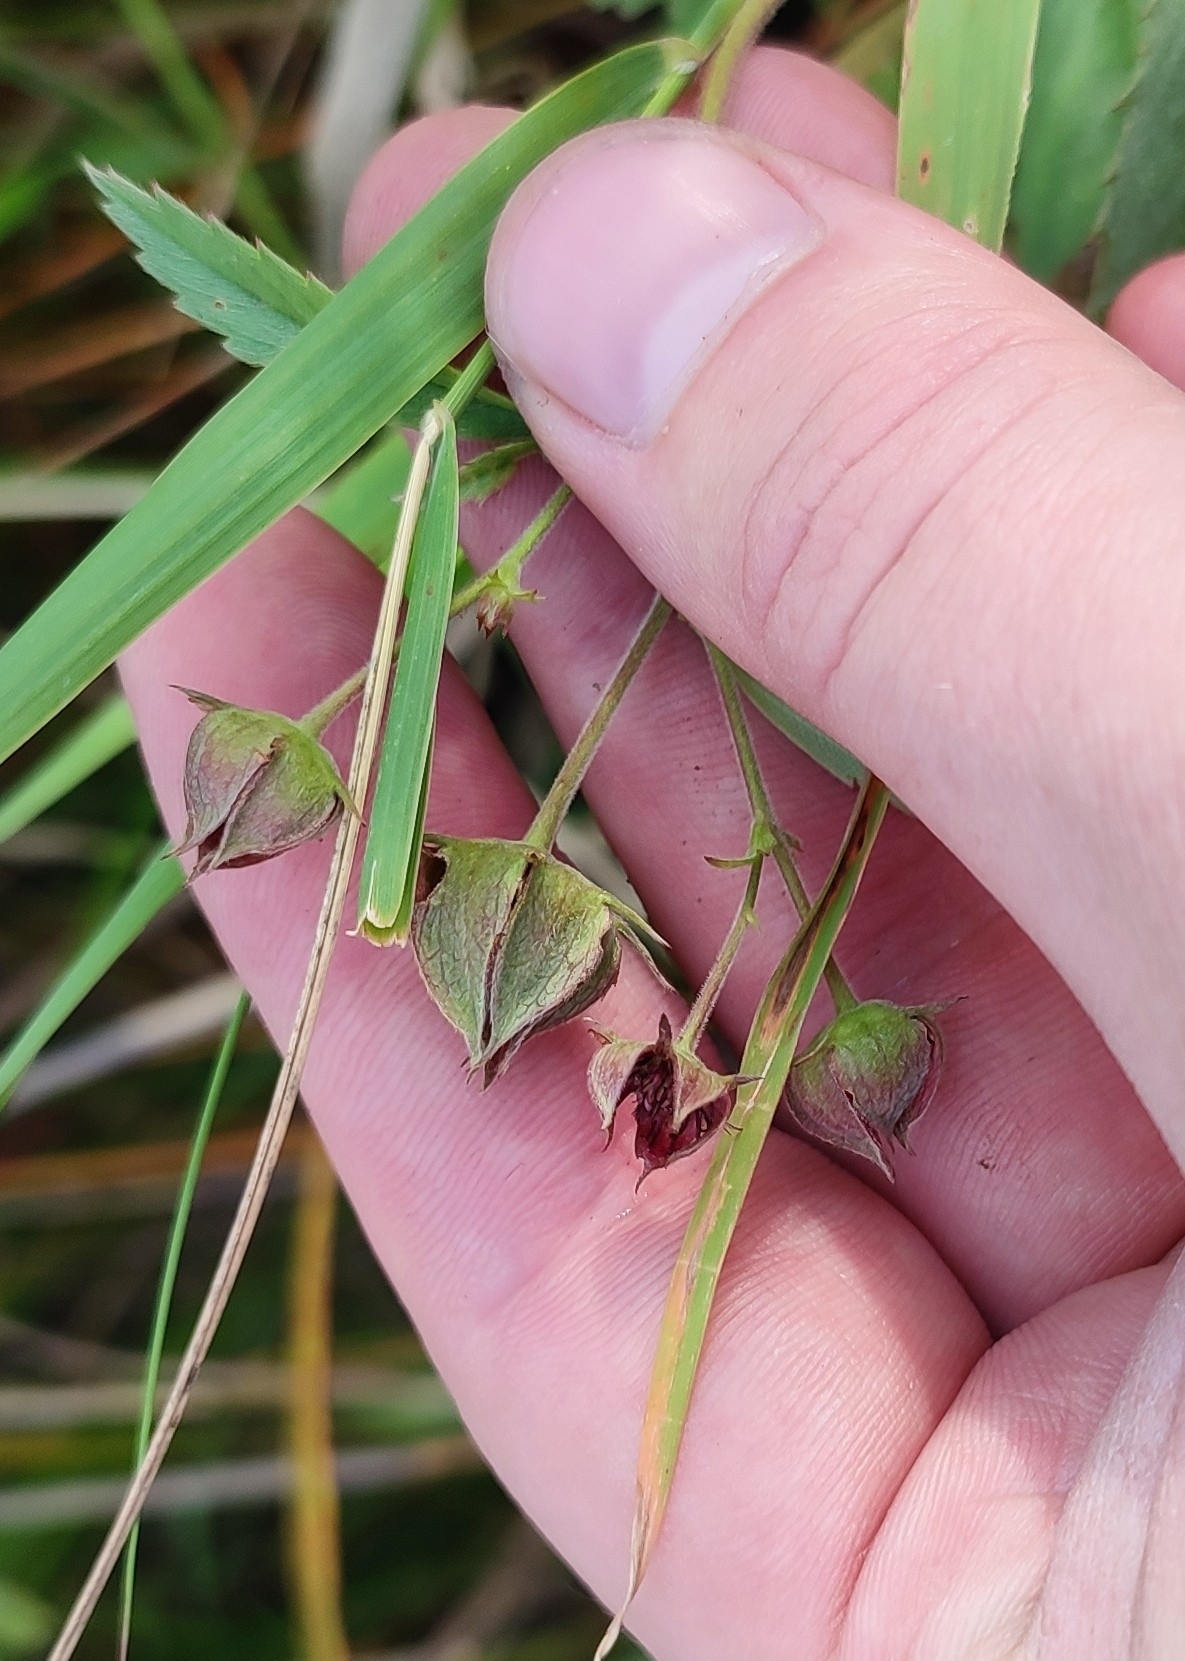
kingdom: Plantae
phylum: Tracheophyta
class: Magnoliopsida
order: Rosales
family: Rosaceae
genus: Comarum
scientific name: Comarum palustre
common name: Marsh cinquefoil
